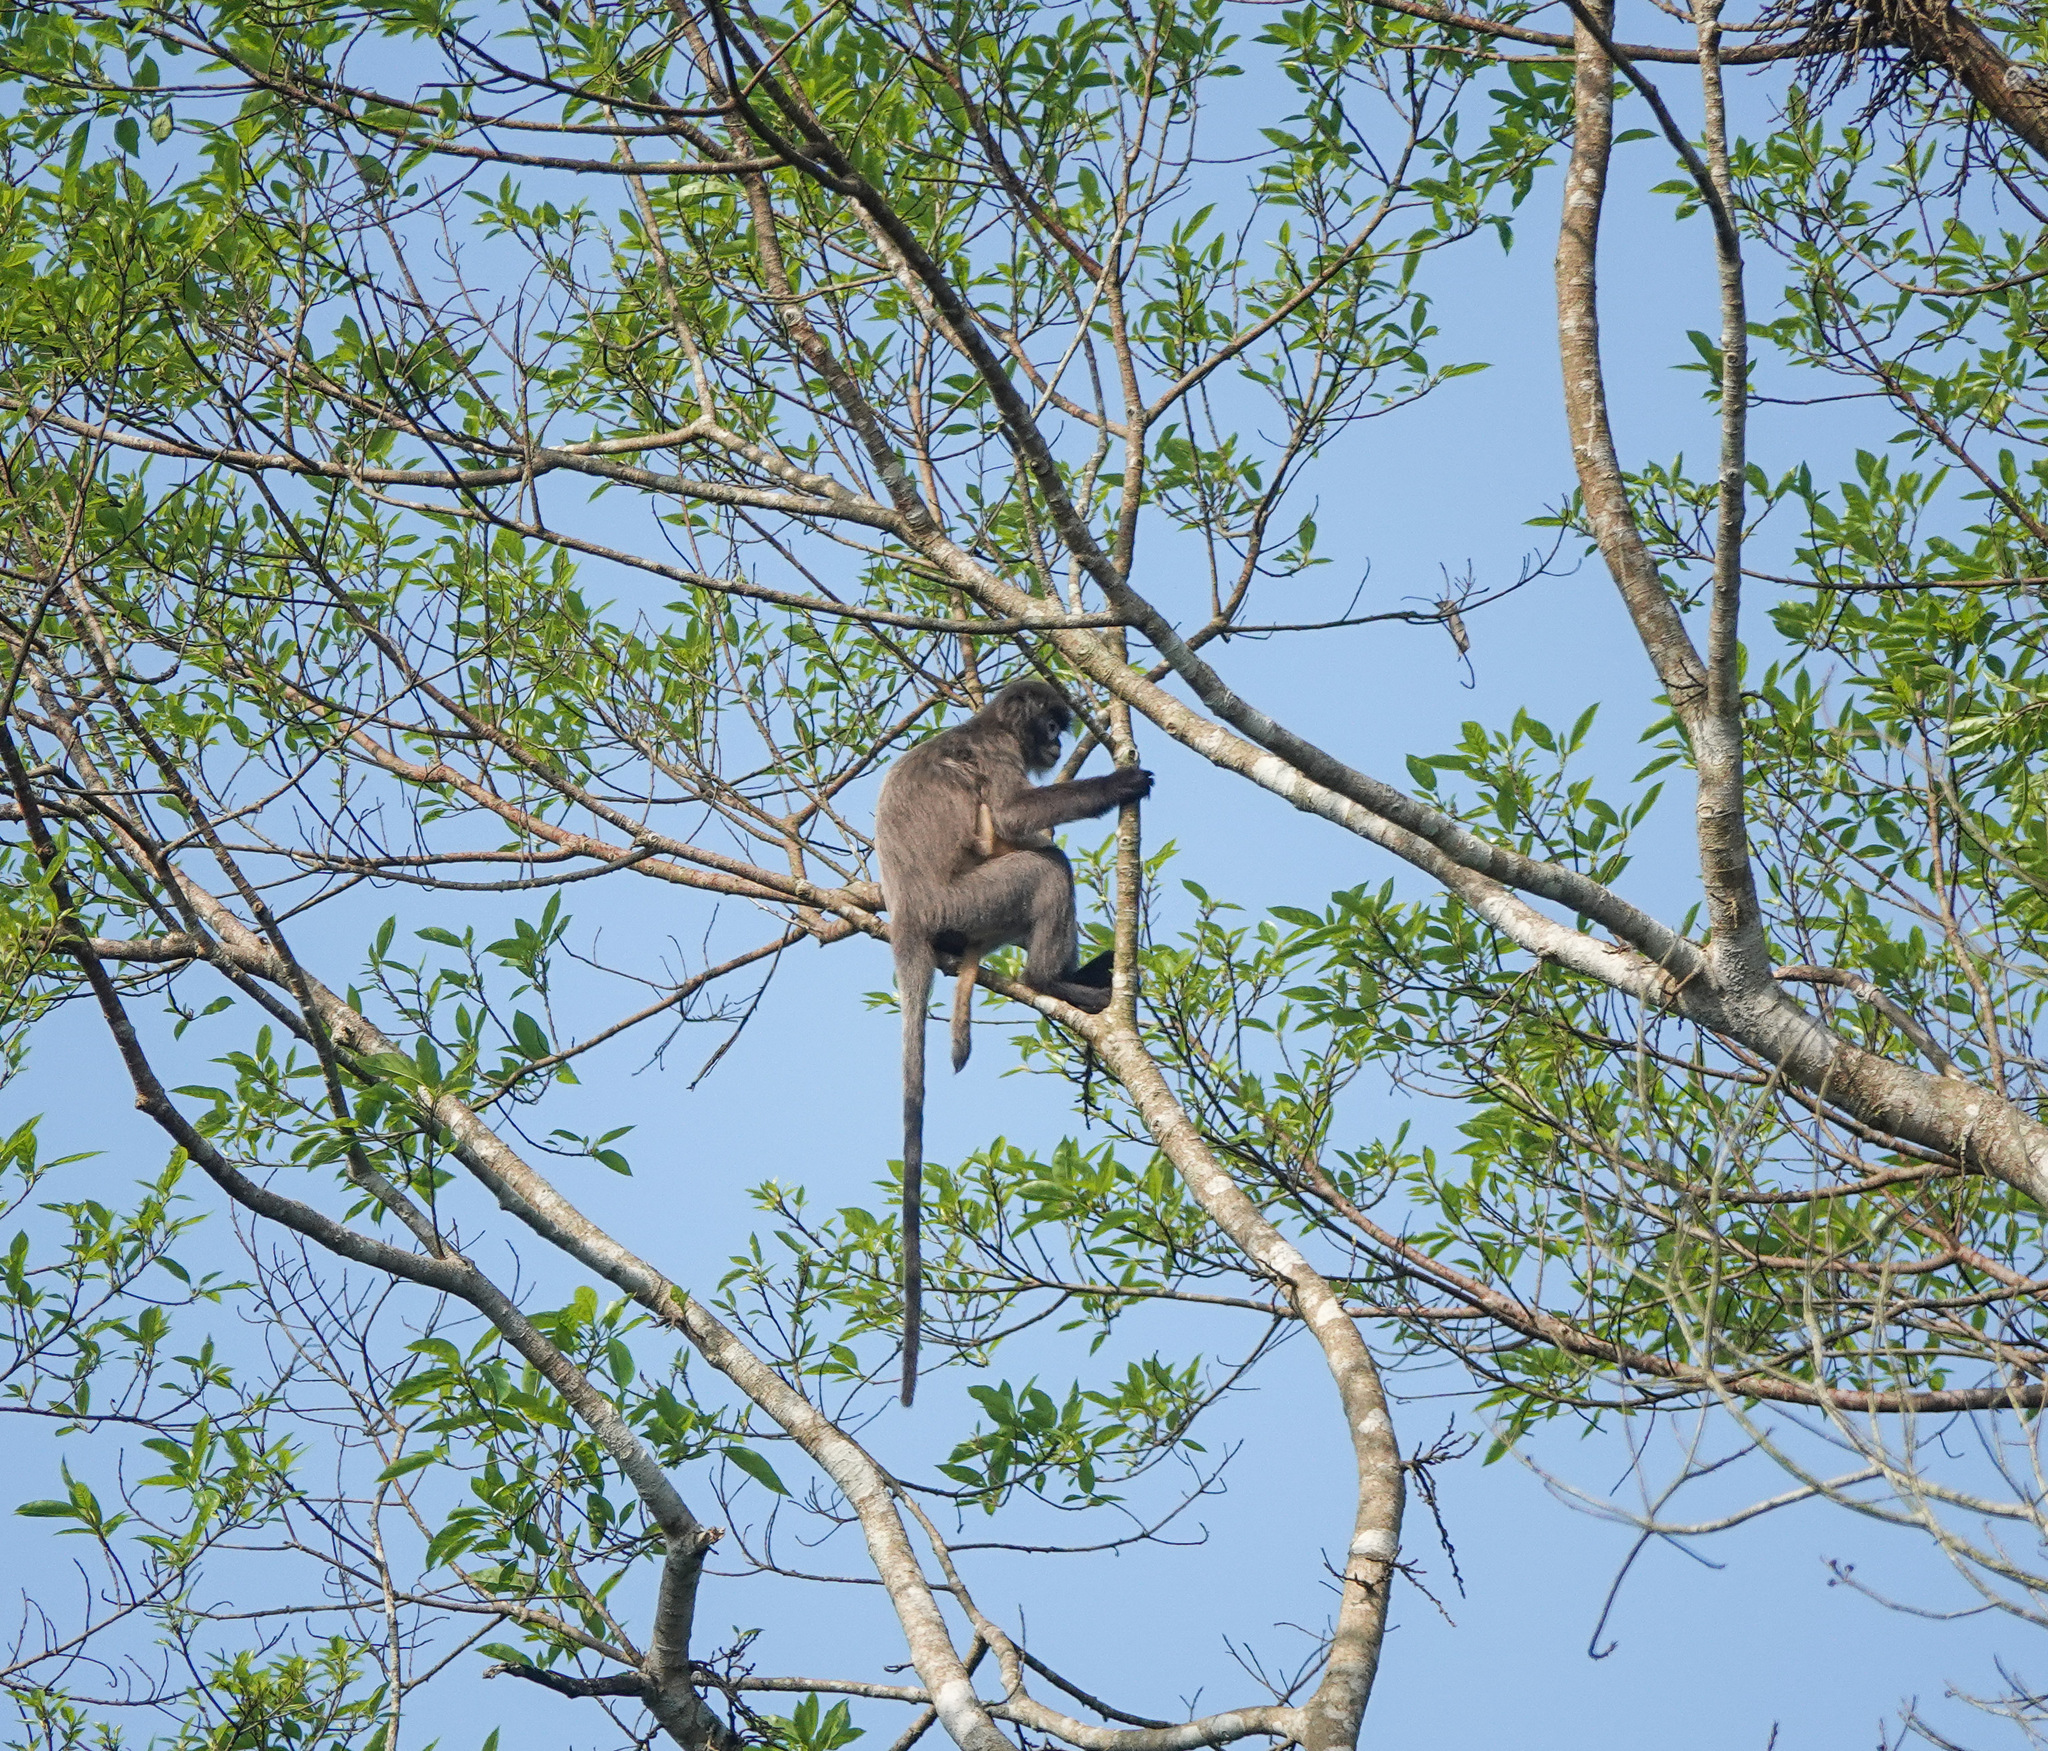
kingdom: Animalia
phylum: Chordata
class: Mammalia
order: Primates
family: Cercopithecidae
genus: Trachypithecus
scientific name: Trachypithecus phayrei
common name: Phayre's leaf monkey
